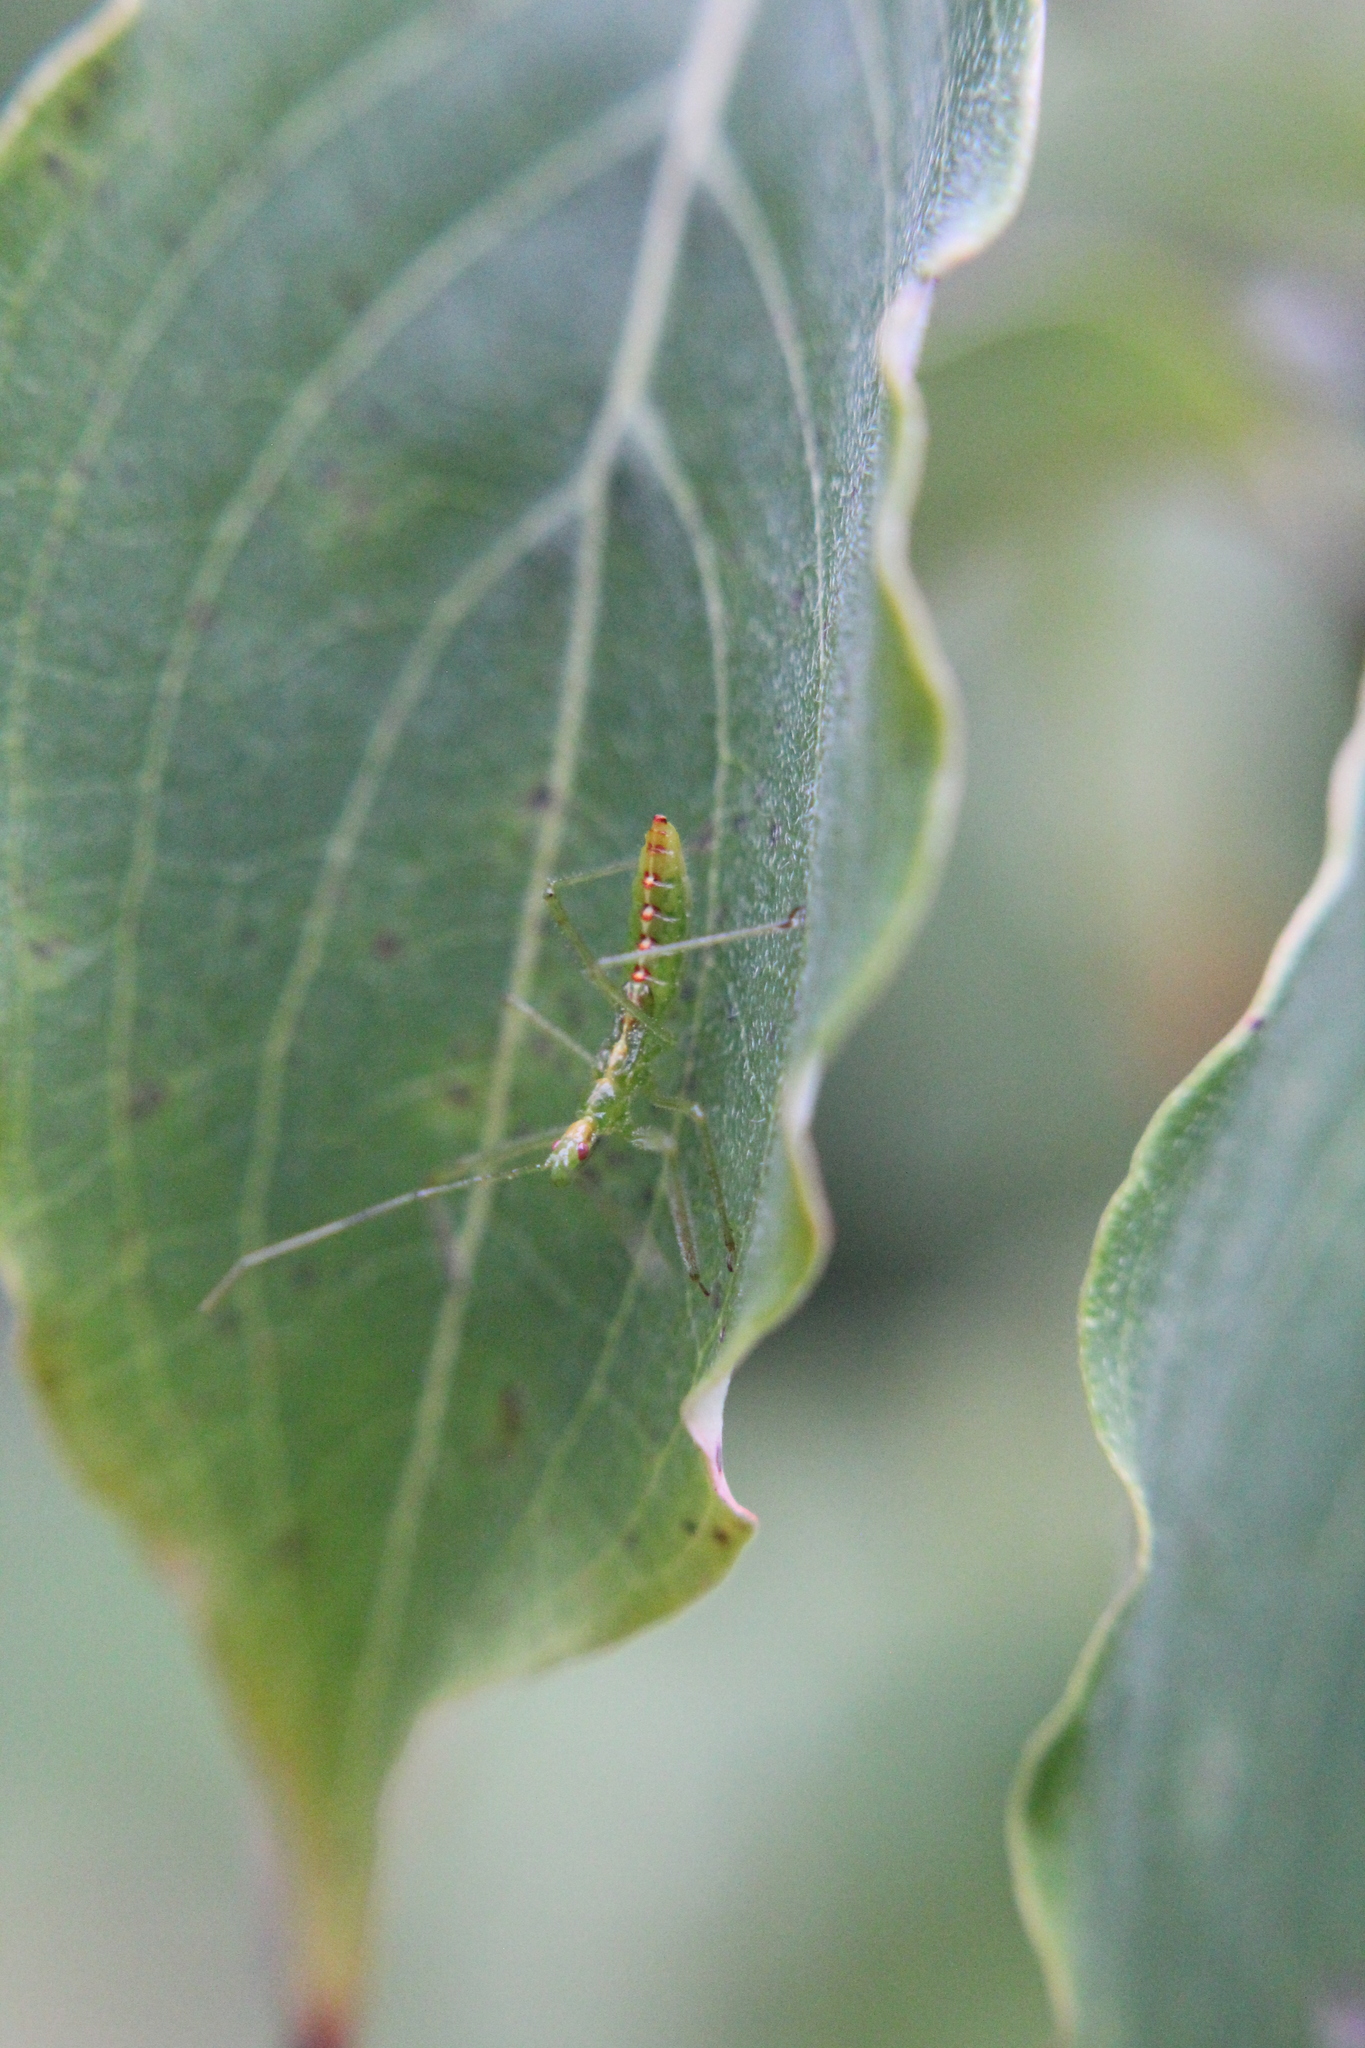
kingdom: Animalia
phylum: Arthropoda
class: Insecta
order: Hemiptera
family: Reduviidae
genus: Zelus
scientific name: Zelus luridus
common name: Pale green assassin bug
